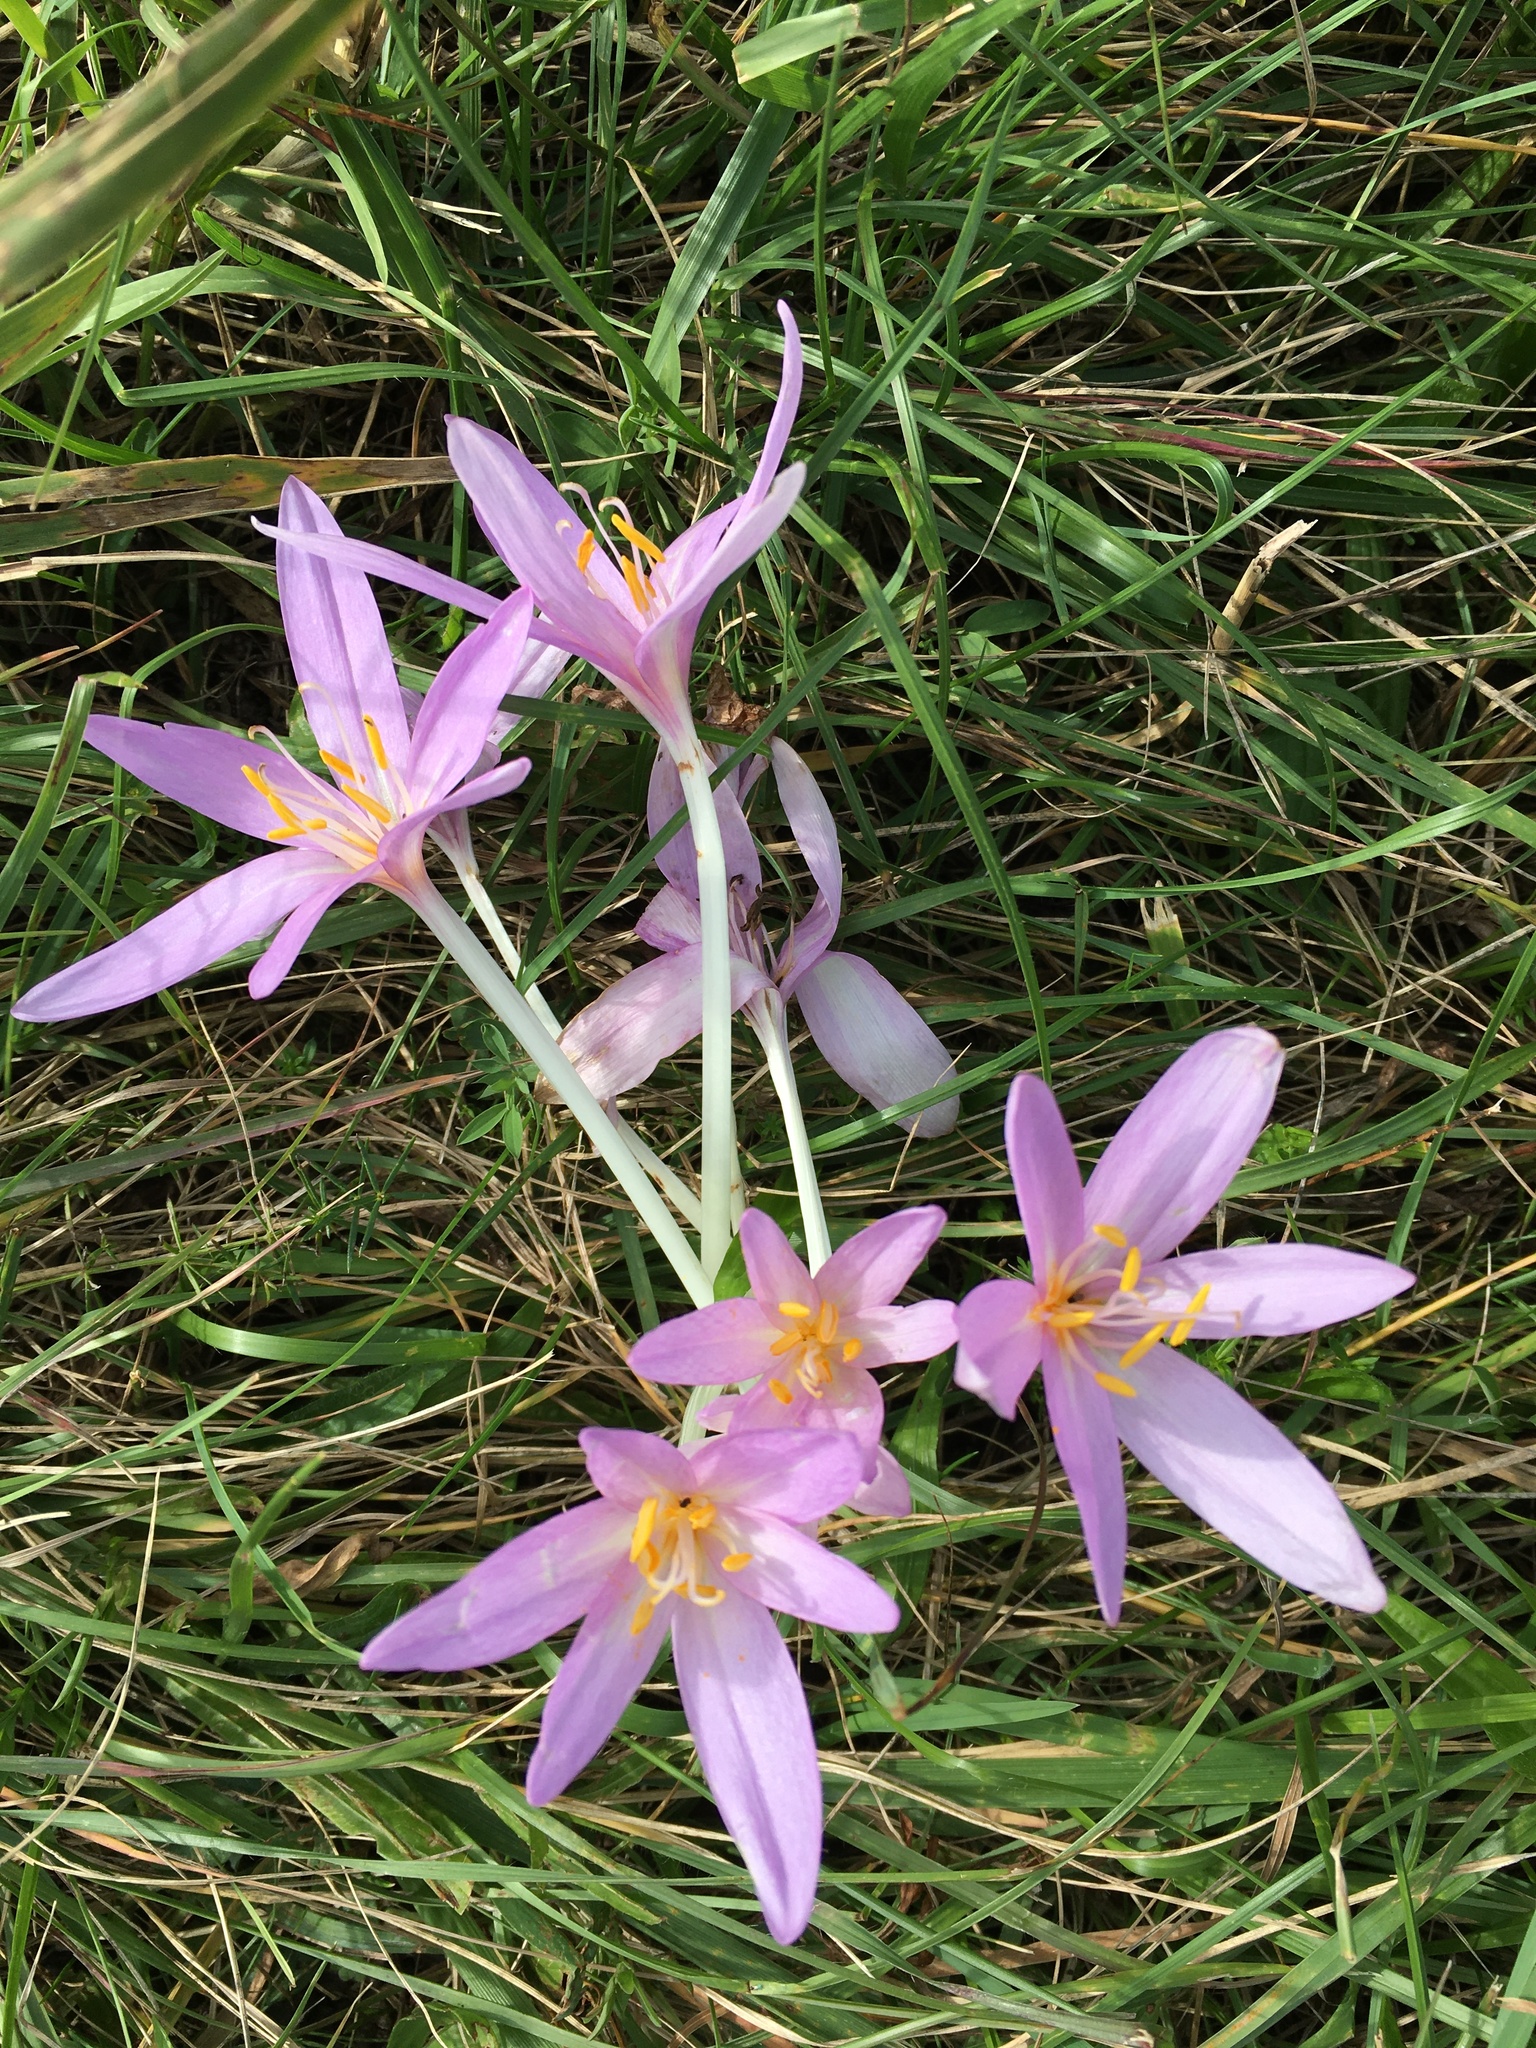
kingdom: Plantae
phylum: Tracheophyta
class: Liliopsida
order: Liliales
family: Colchicaceae
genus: Colchicum
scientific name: Colchicum autumnale
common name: Autumn crocus
